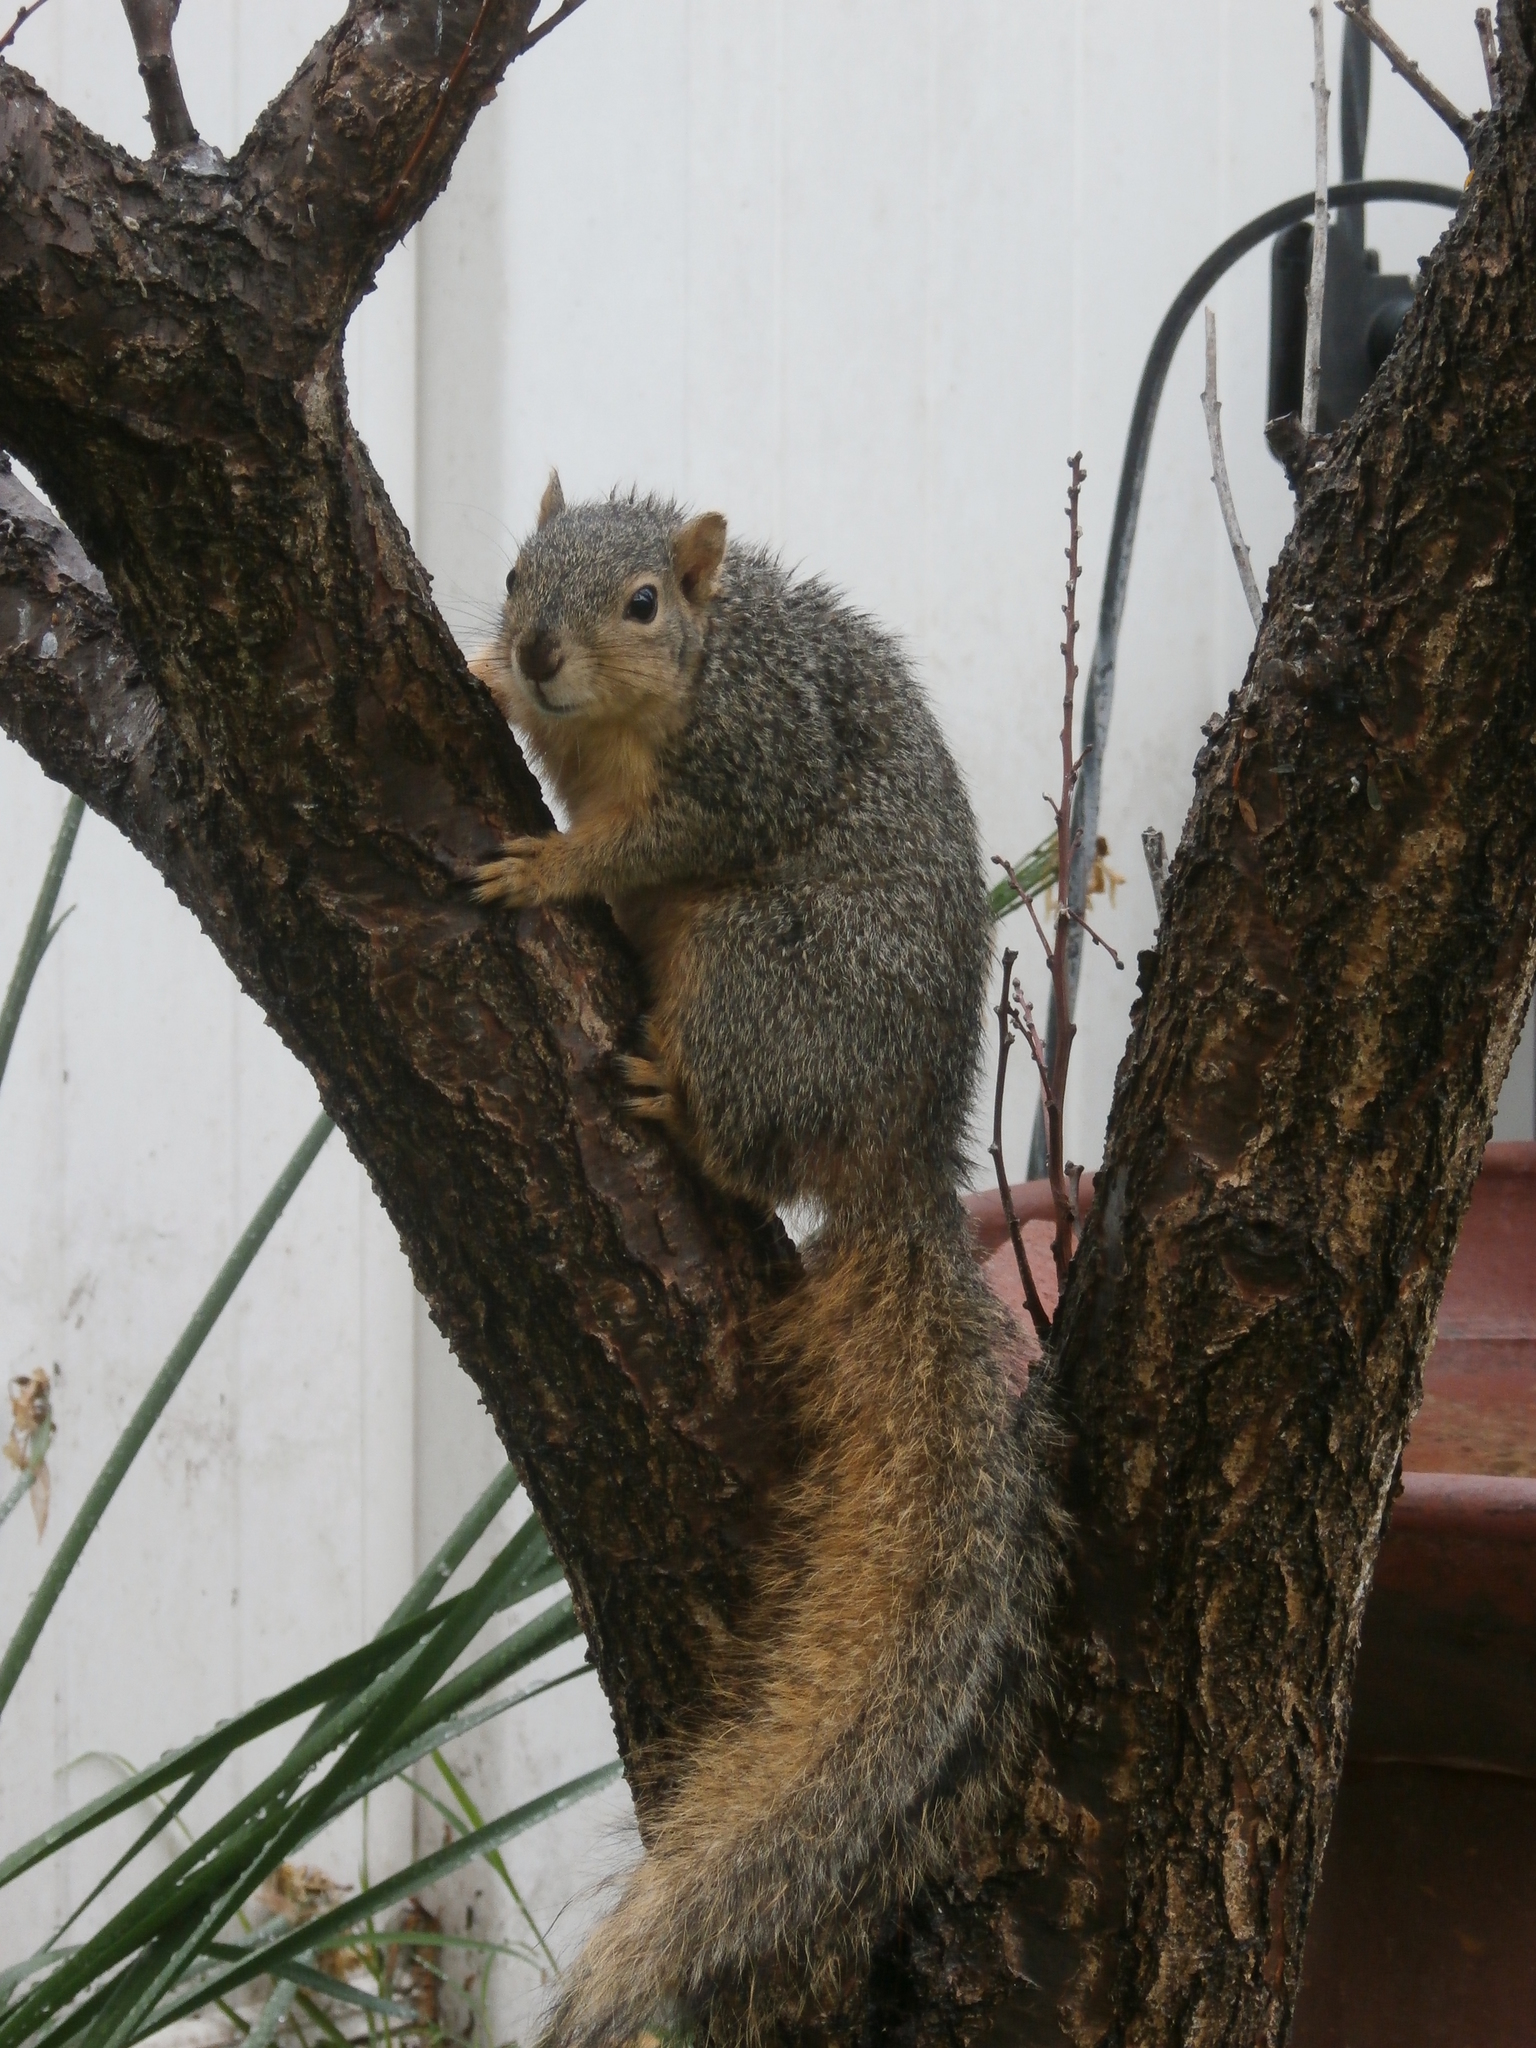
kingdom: Animalia
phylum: Chordata
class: Mammalia
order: Rodentia
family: Sciuridae
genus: Sciurus
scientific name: Sciurus niger
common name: Fox squirrel
